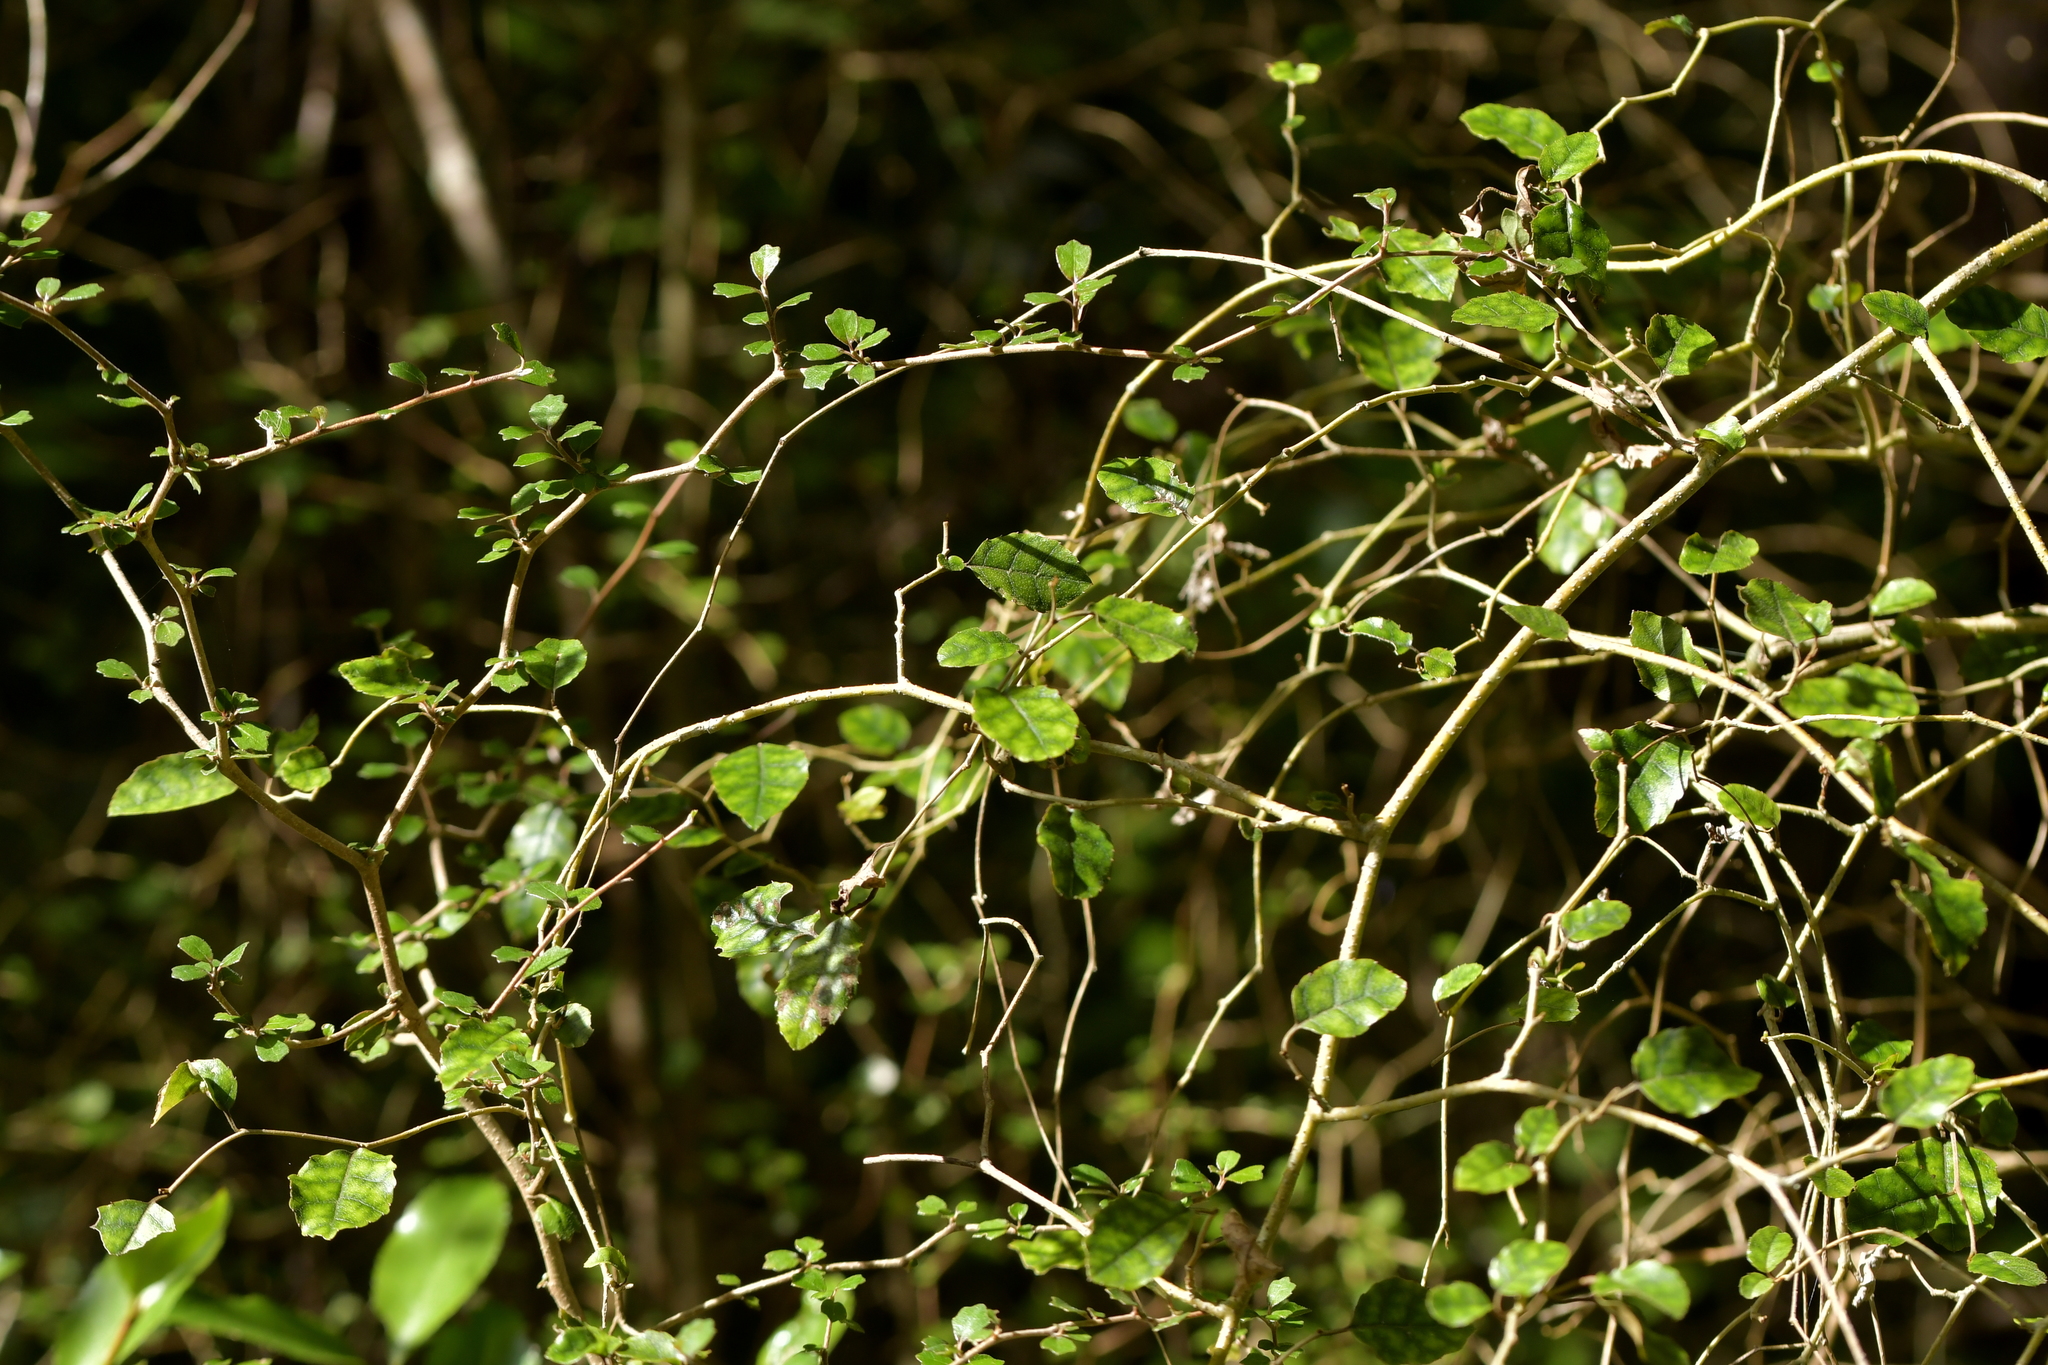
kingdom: Plantae
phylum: Tracheophyta
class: Magnoliopsida
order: Asterales
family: Rousseaceae
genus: Carpodetus
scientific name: Carpodetus serratus
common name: White mapau
